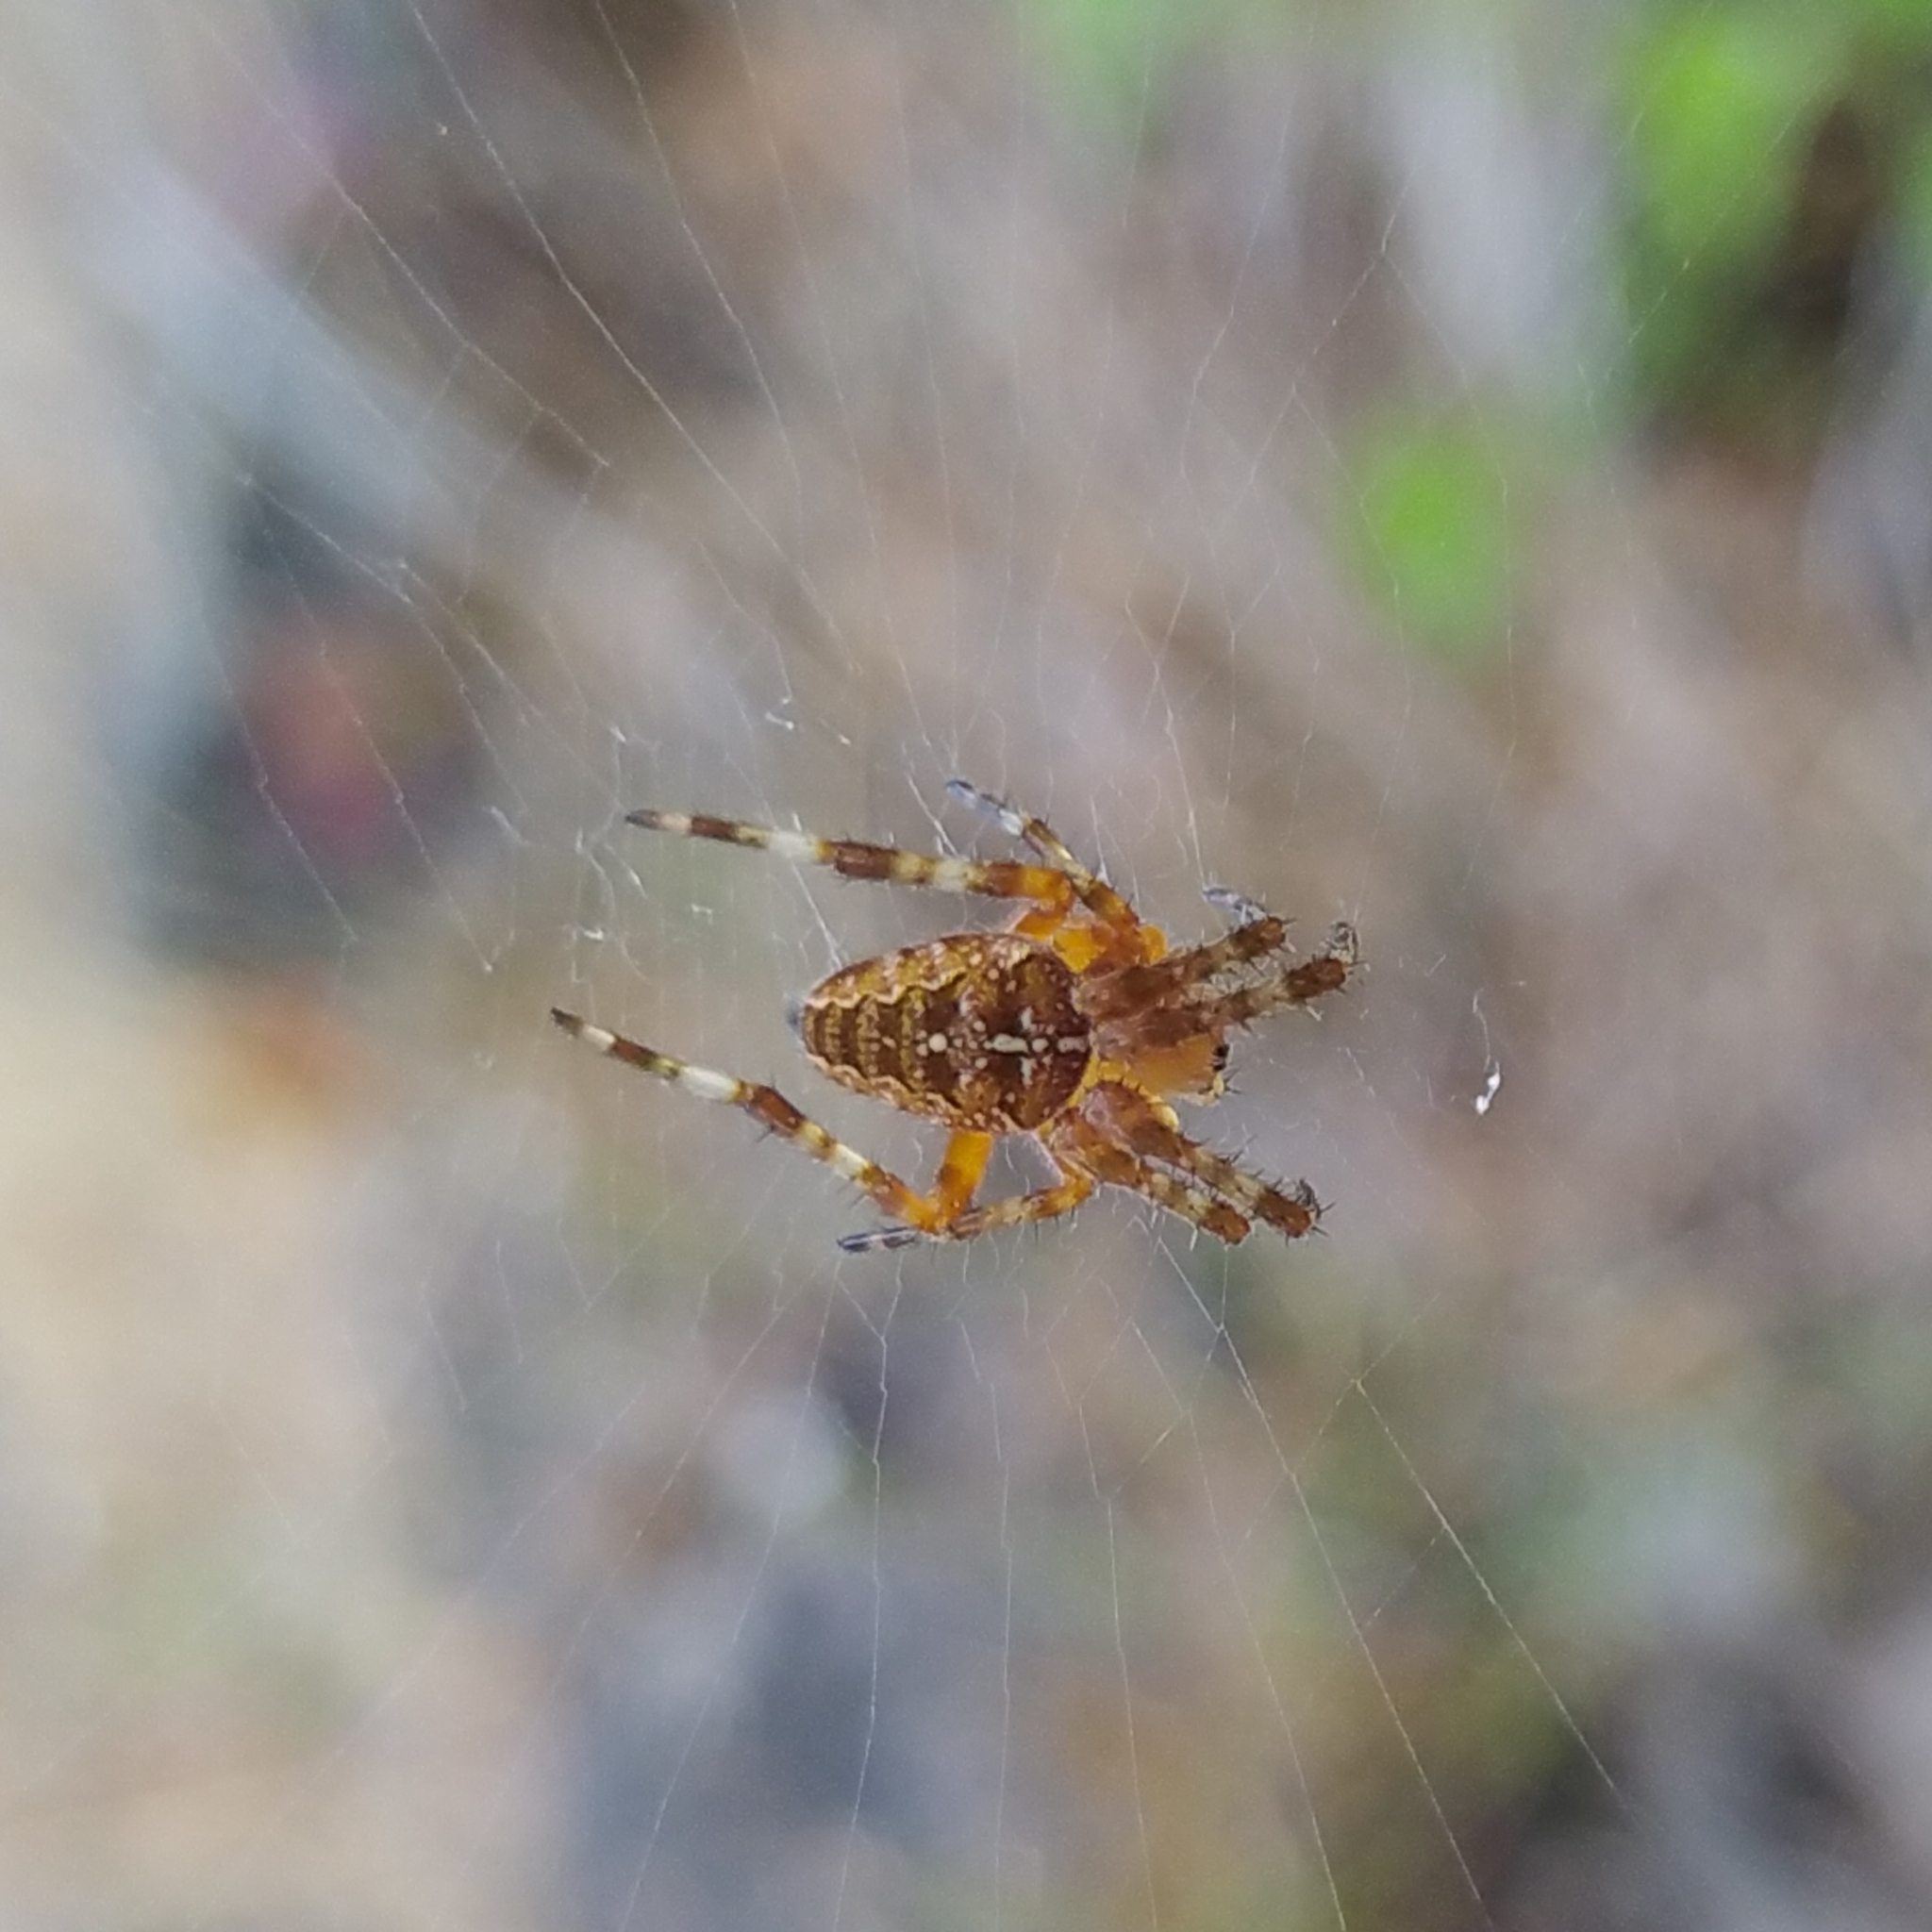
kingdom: Animalia
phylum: Arthropoda
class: Arachnida
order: Araneae
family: Araneidae
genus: Araneus
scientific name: Araneus diadematus
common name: Cross orbweaver
